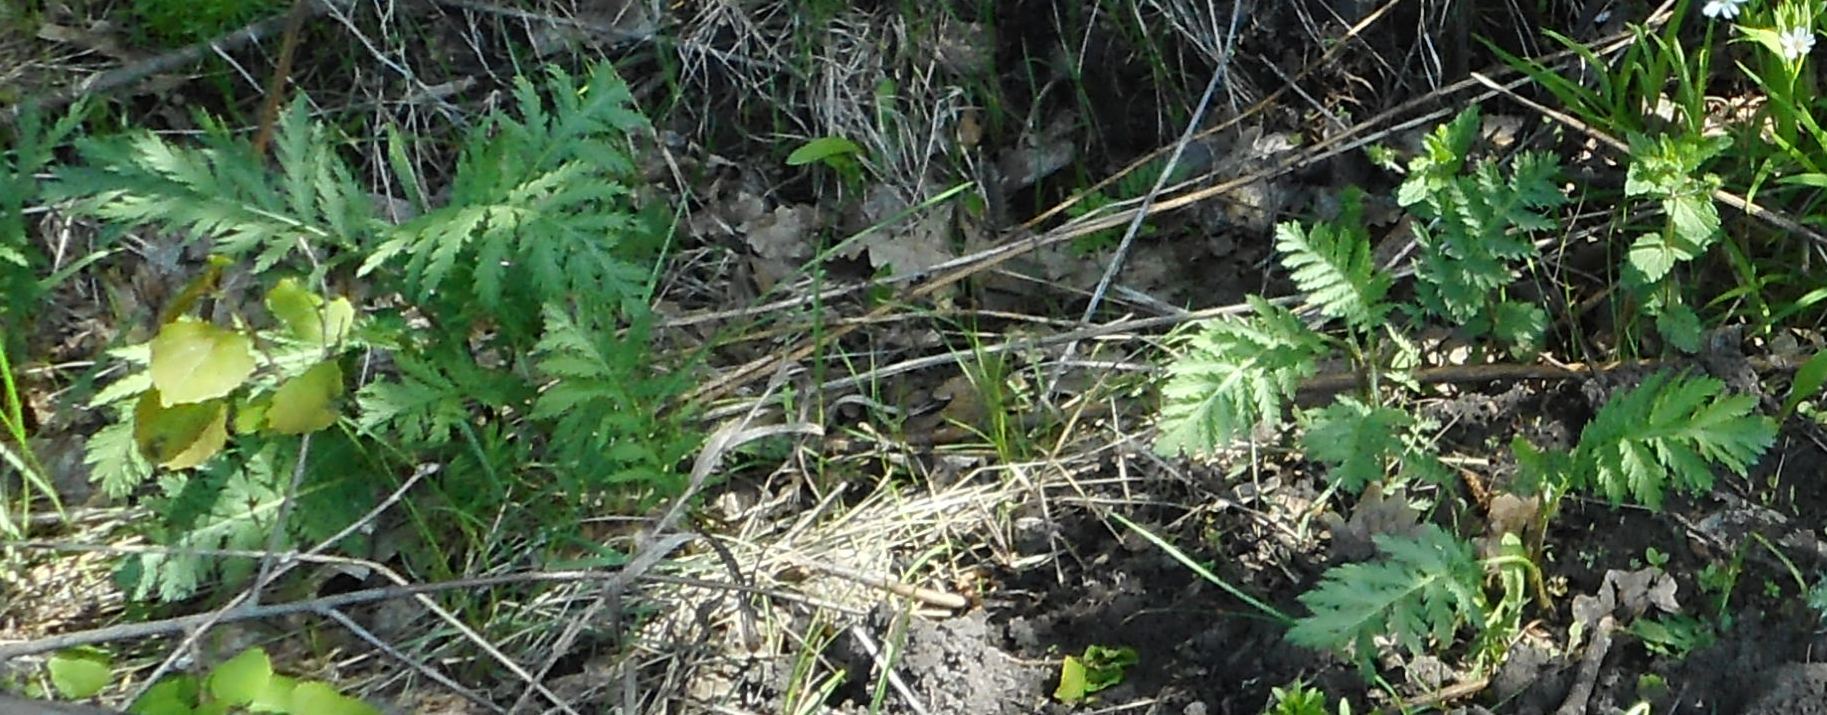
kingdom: Plantae
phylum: Tracheophyta
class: Magnoliopsida
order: Asterales
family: Asteraceae
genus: Tanacetum
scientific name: Tanacetum vulgare
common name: Common tansy
